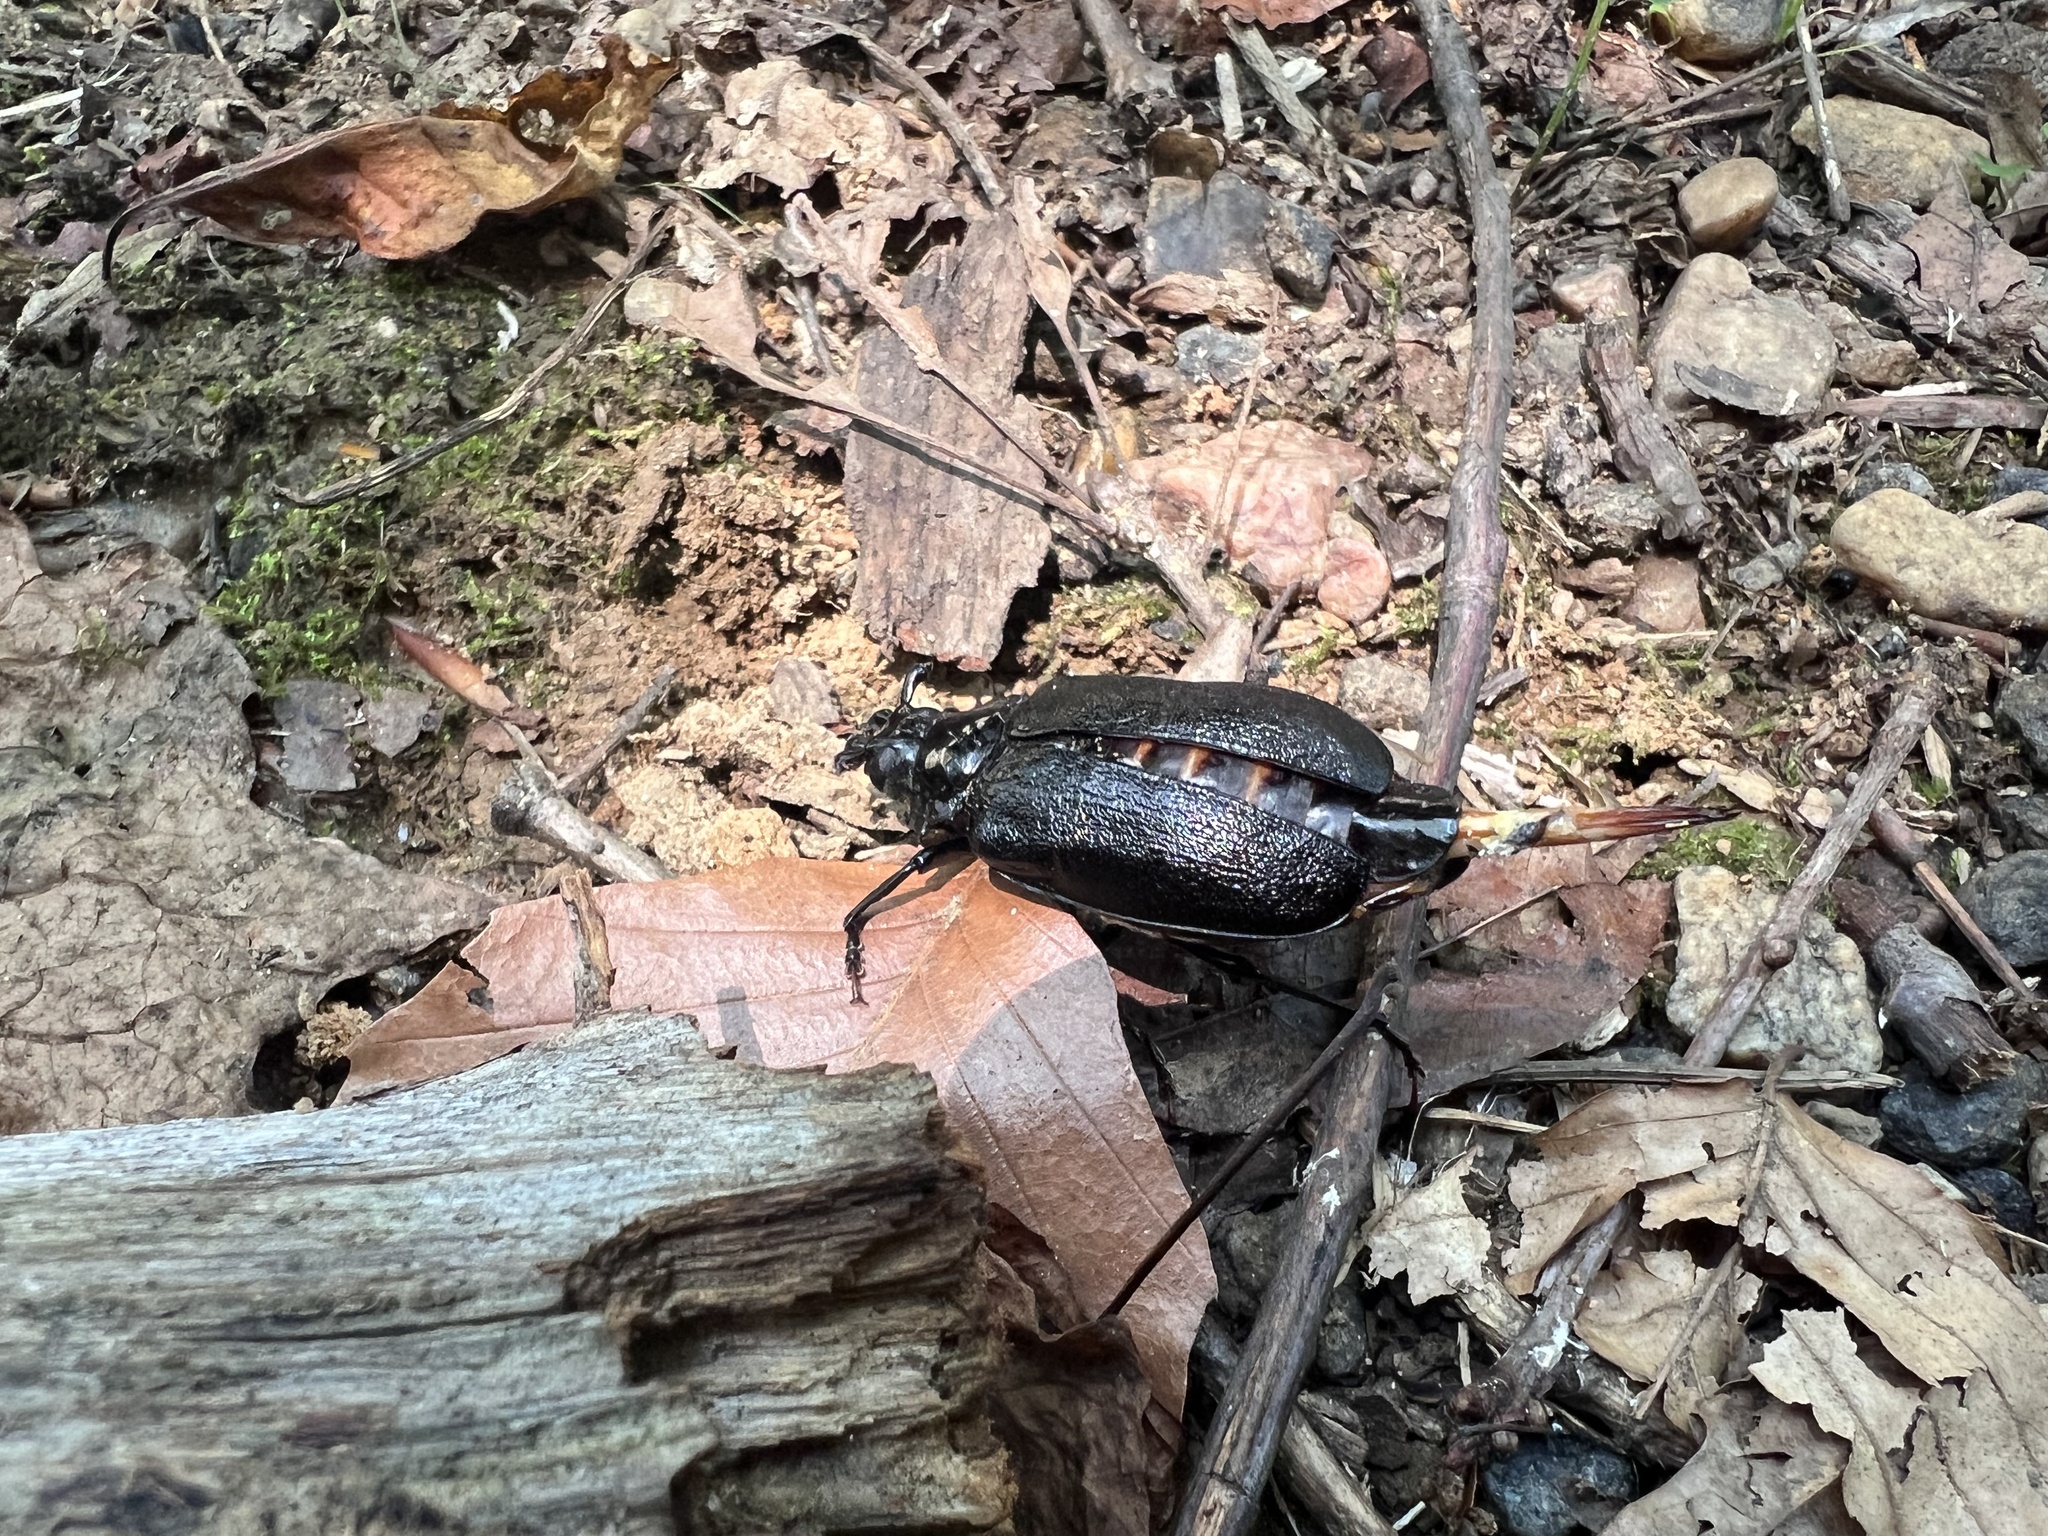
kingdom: Animalia
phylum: Arthropoda
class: Insecta
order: Coleoptera
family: Cerambycidae
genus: Prionus
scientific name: Prionus laticollis
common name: Broad necked prionus
